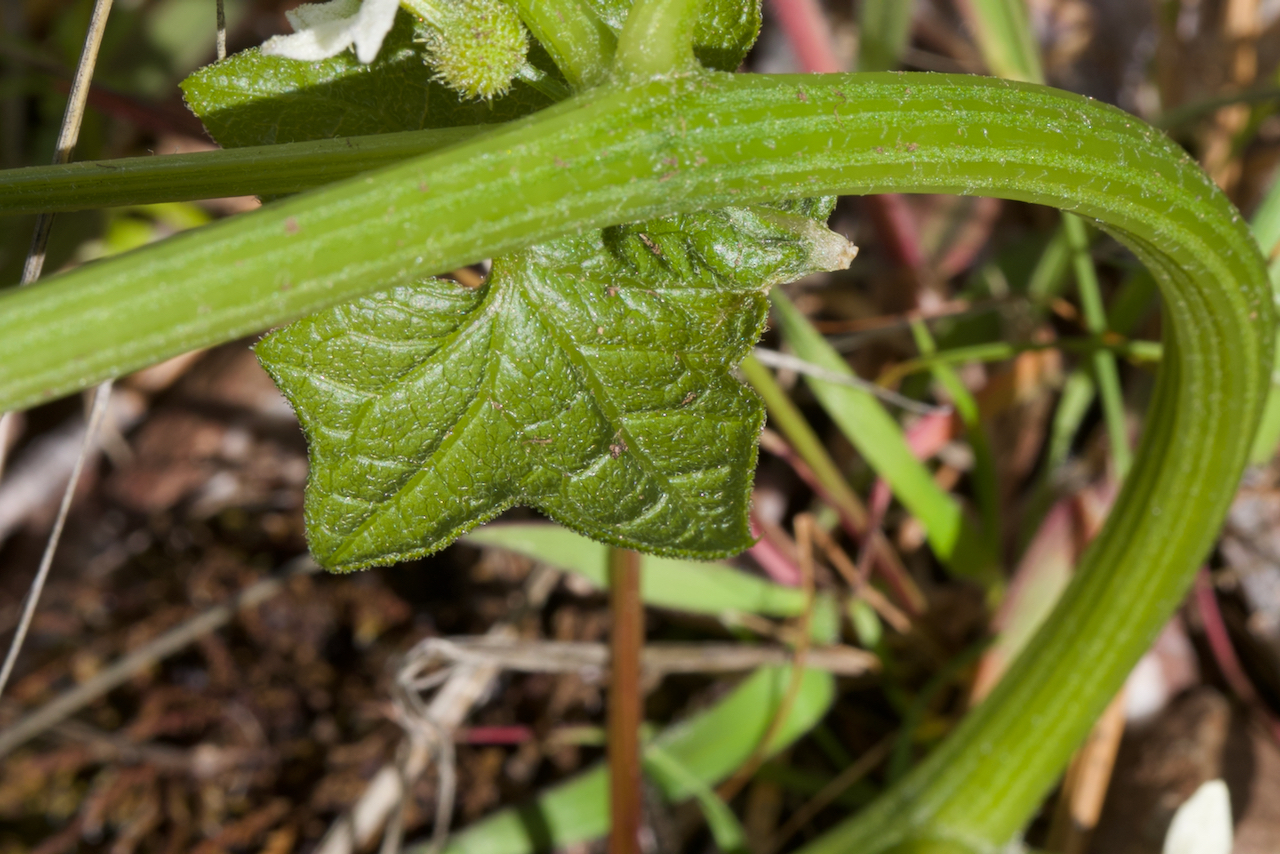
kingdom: Plantae
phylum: Tracheophyta
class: Magnoliopsida
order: Cucurbitales
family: Cucurbitaceae
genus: Marah
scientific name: Marah fabacea
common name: California manroot
